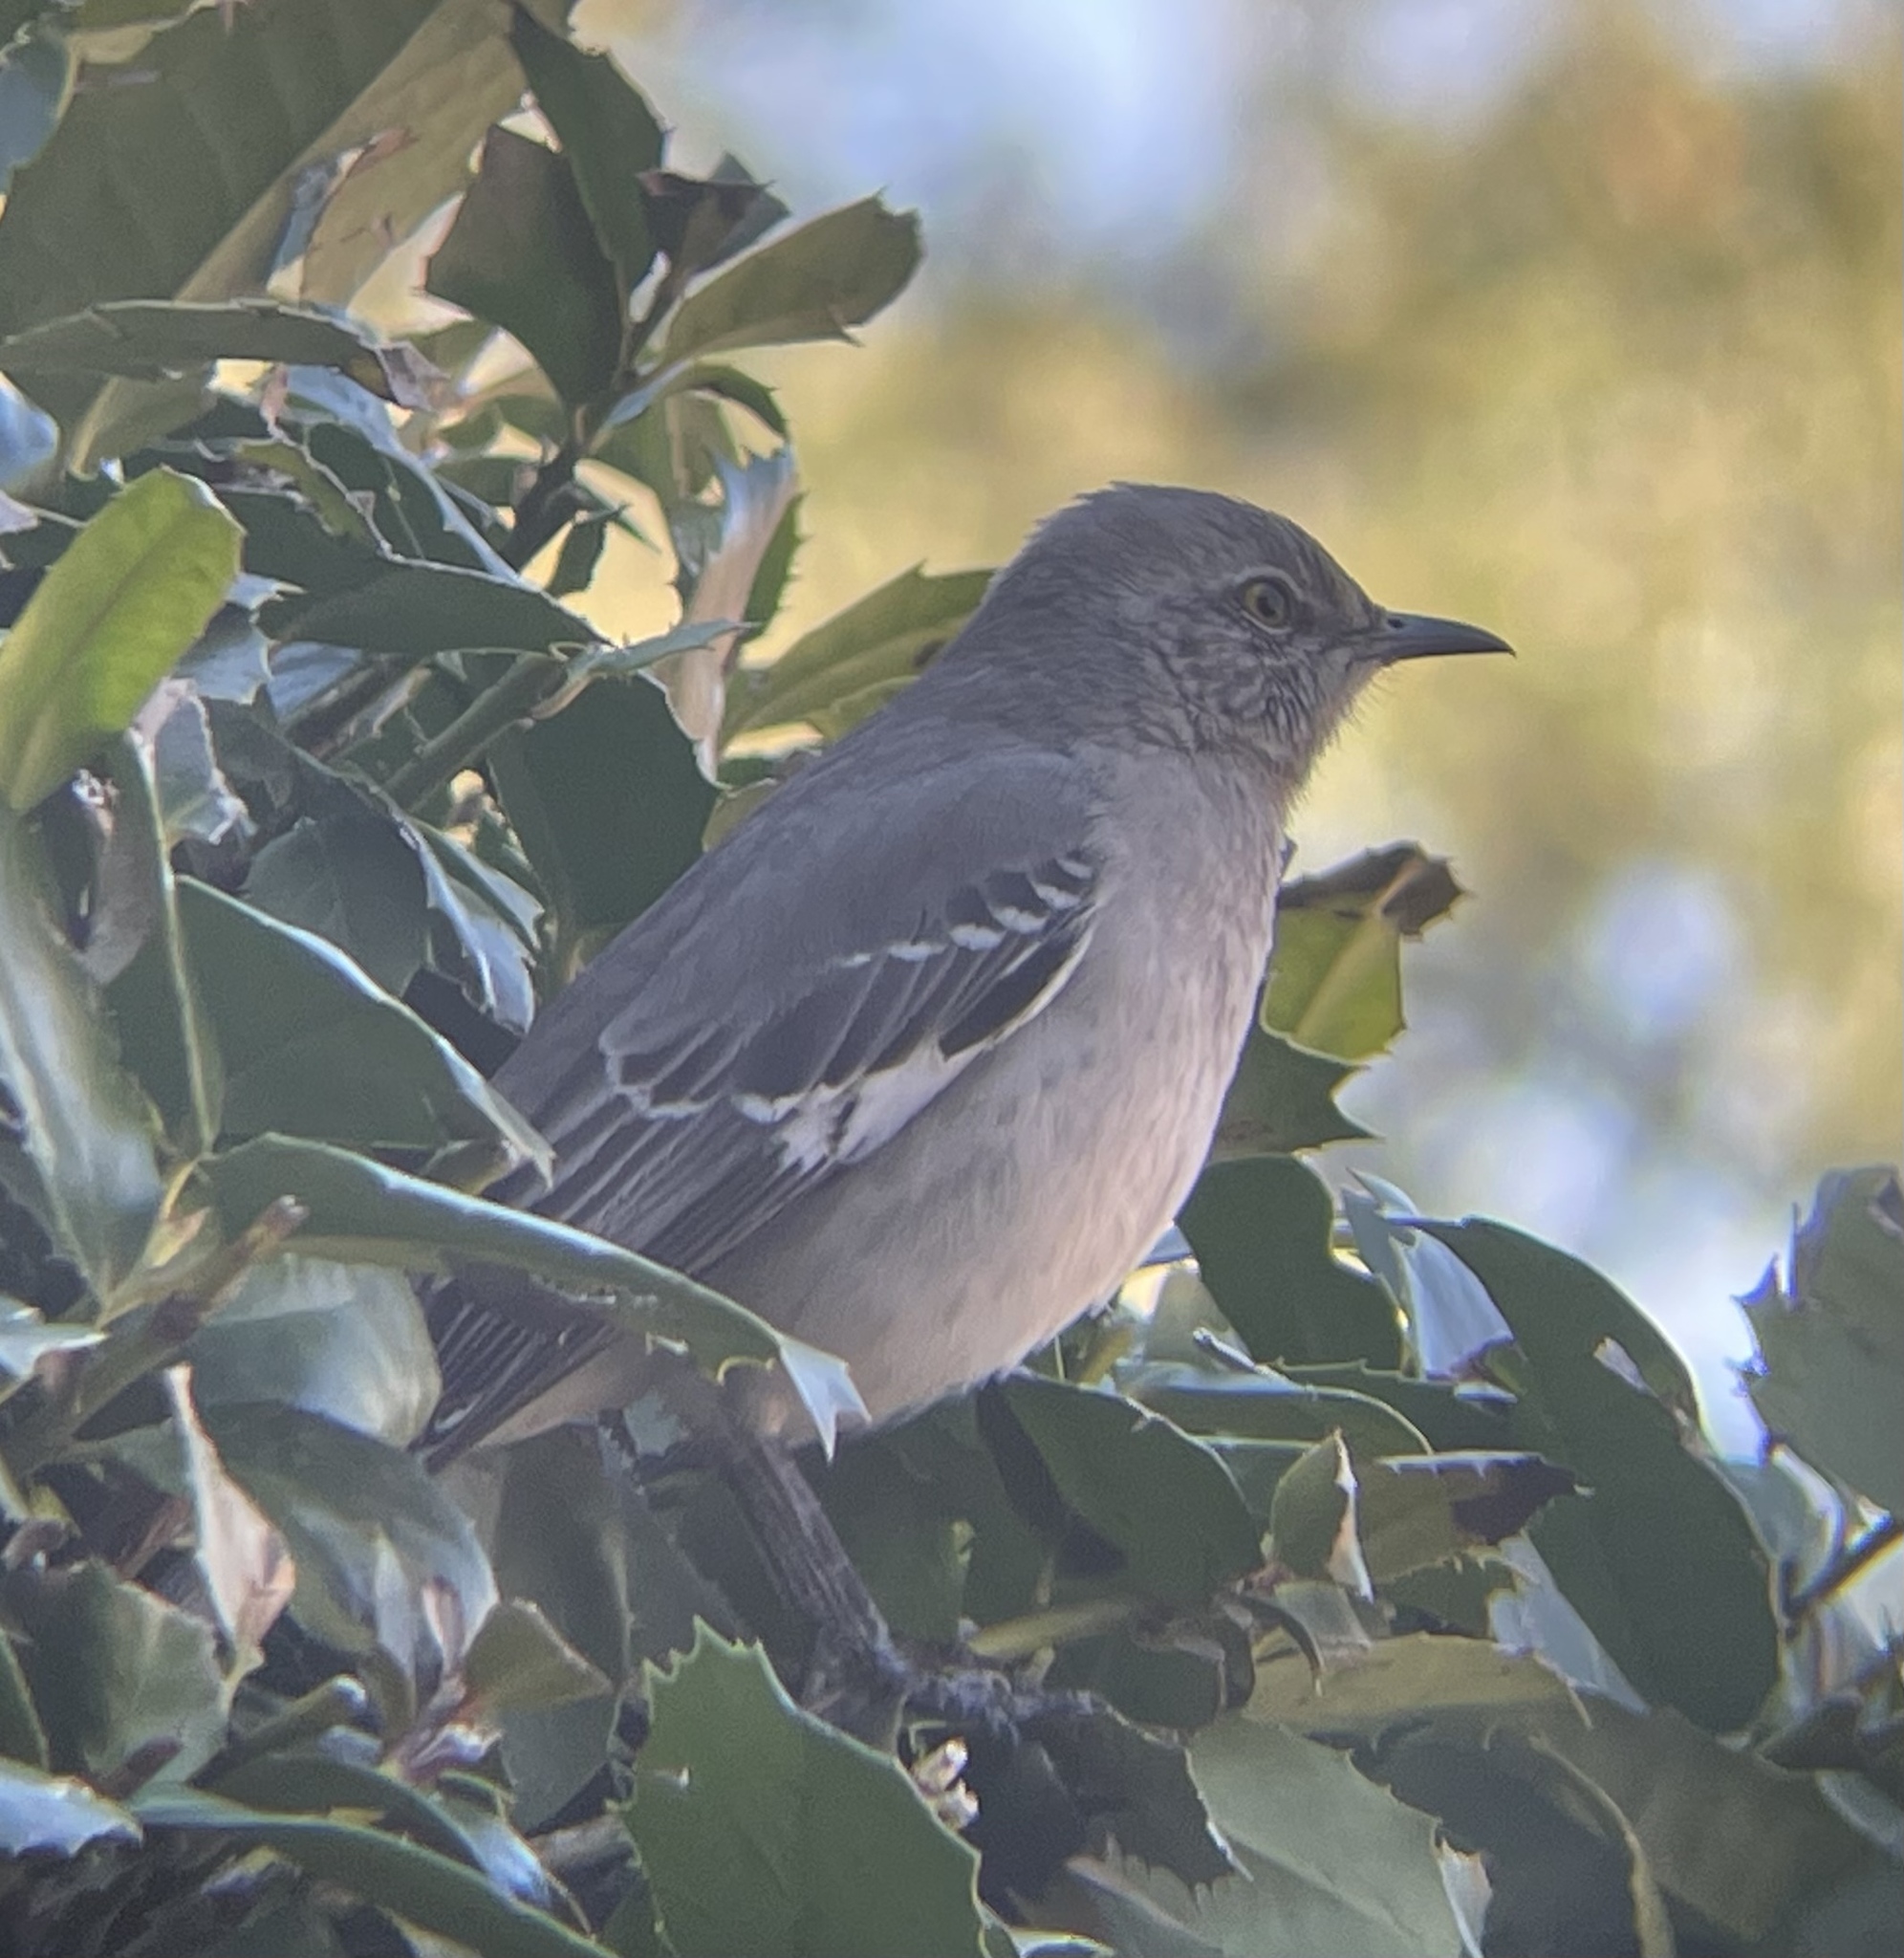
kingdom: Animalia
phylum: Chordata
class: Aves
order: Passeriformes
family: Mimidae
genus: Mimus
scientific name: Mimus polyglottos
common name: Northern mockingbird
